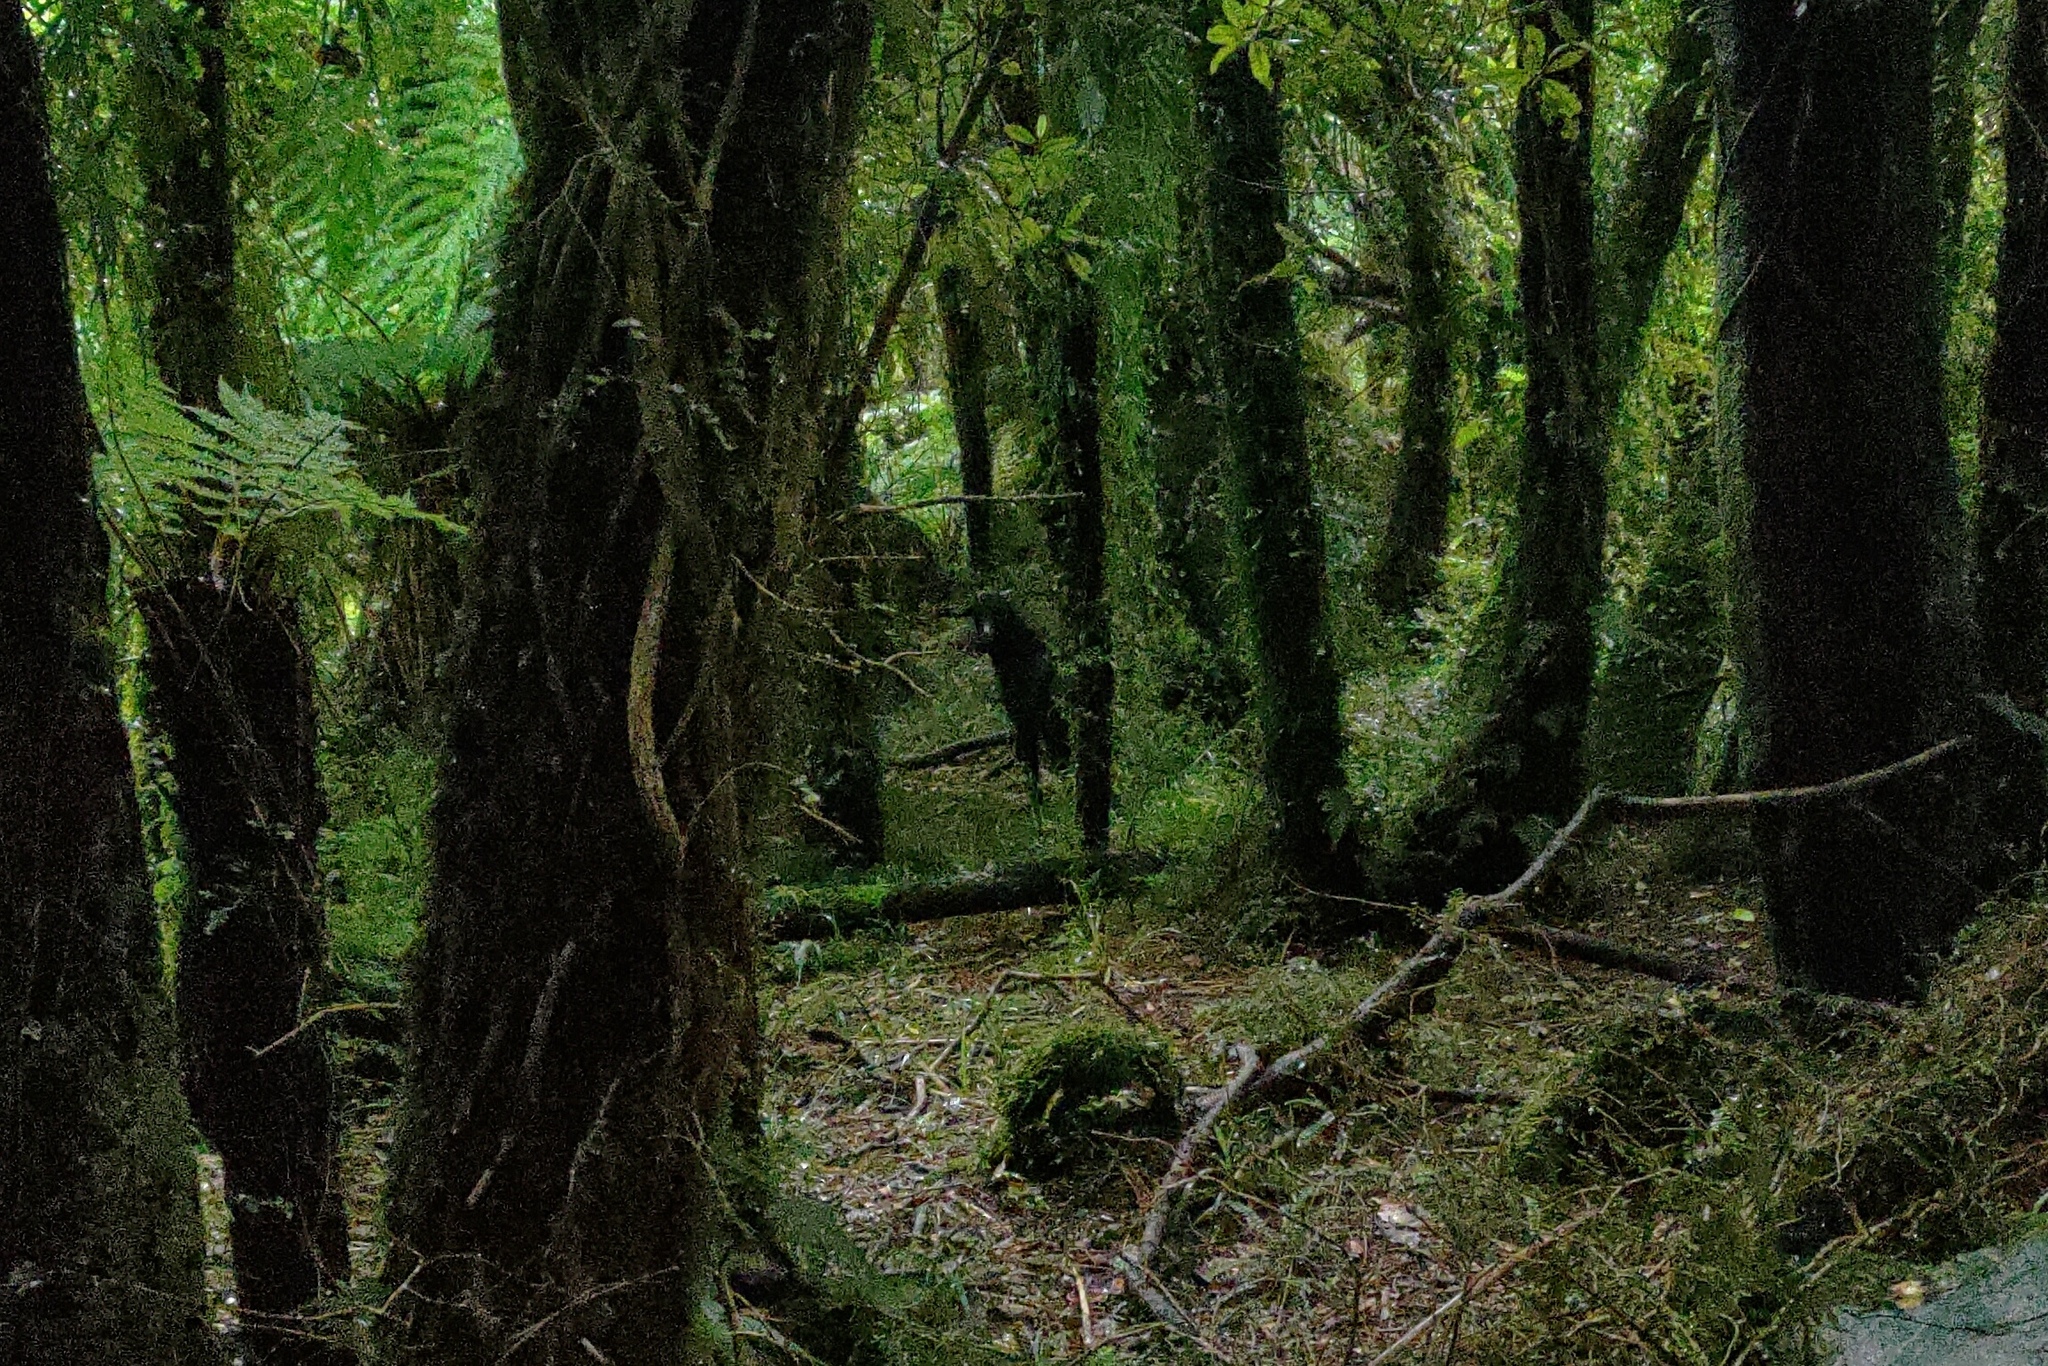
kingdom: Animalia
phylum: Chordata
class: Mammalia
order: Artiodactyla
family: Bovidae
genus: Capra
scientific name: Capra hircus
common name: Domestic goat
